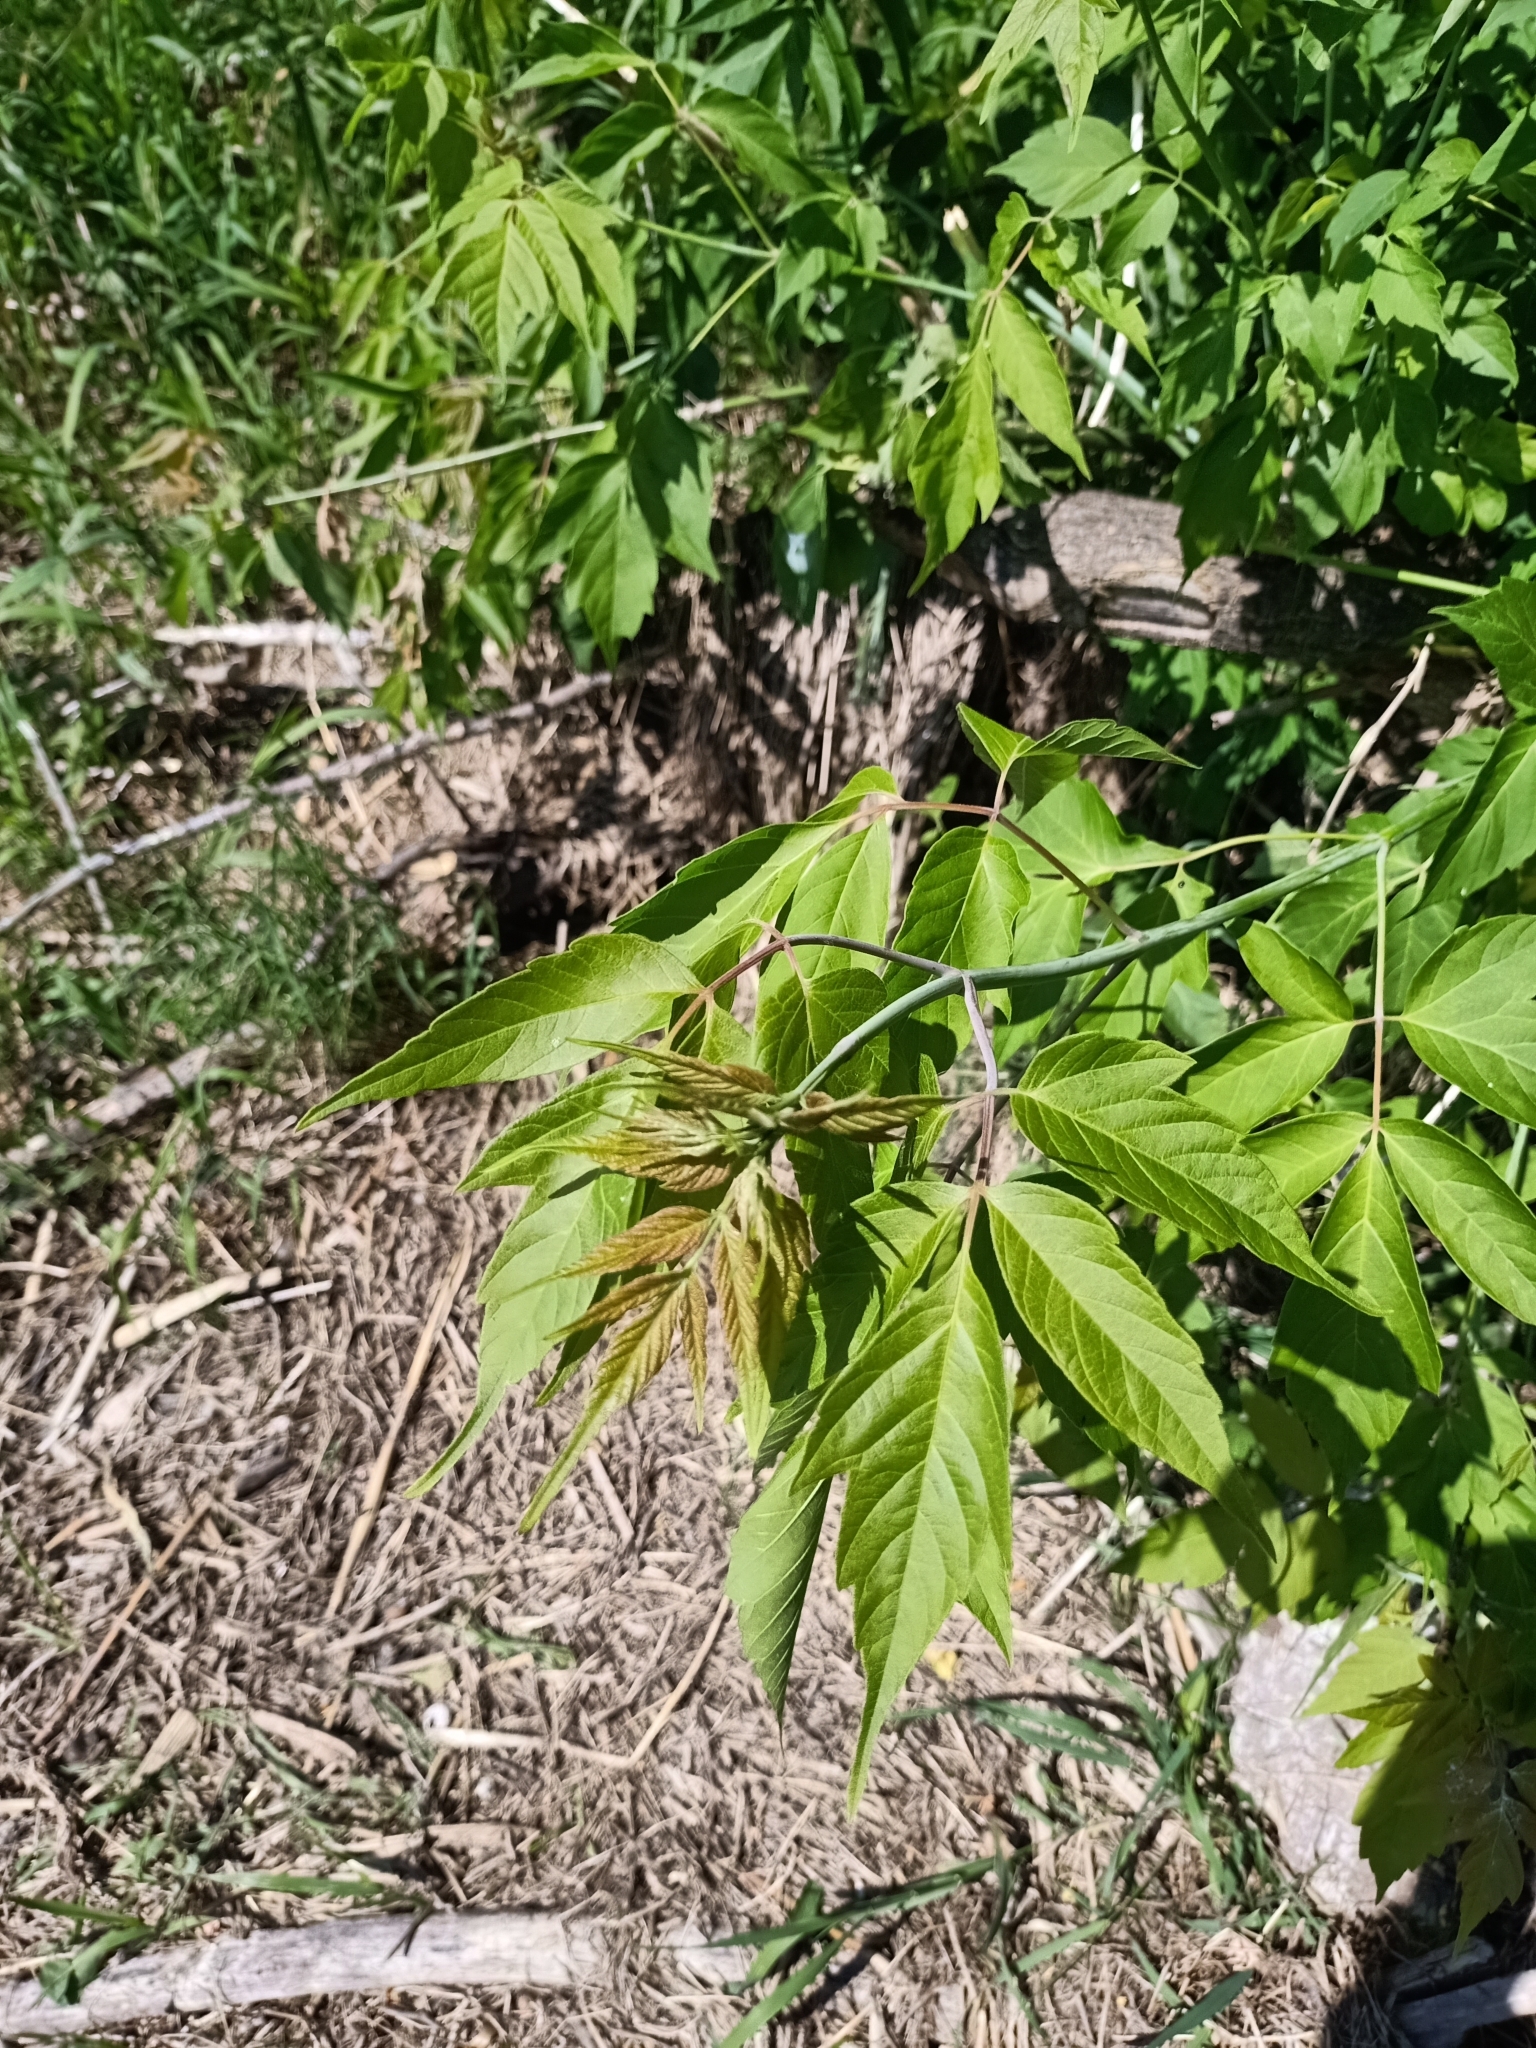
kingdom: Plantae
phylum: Tracheophyta
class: Magnoliopsida
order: Sapindales
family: Sapindaceae
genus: Acer
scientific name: Acer negundo
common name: Ashleaf maple
